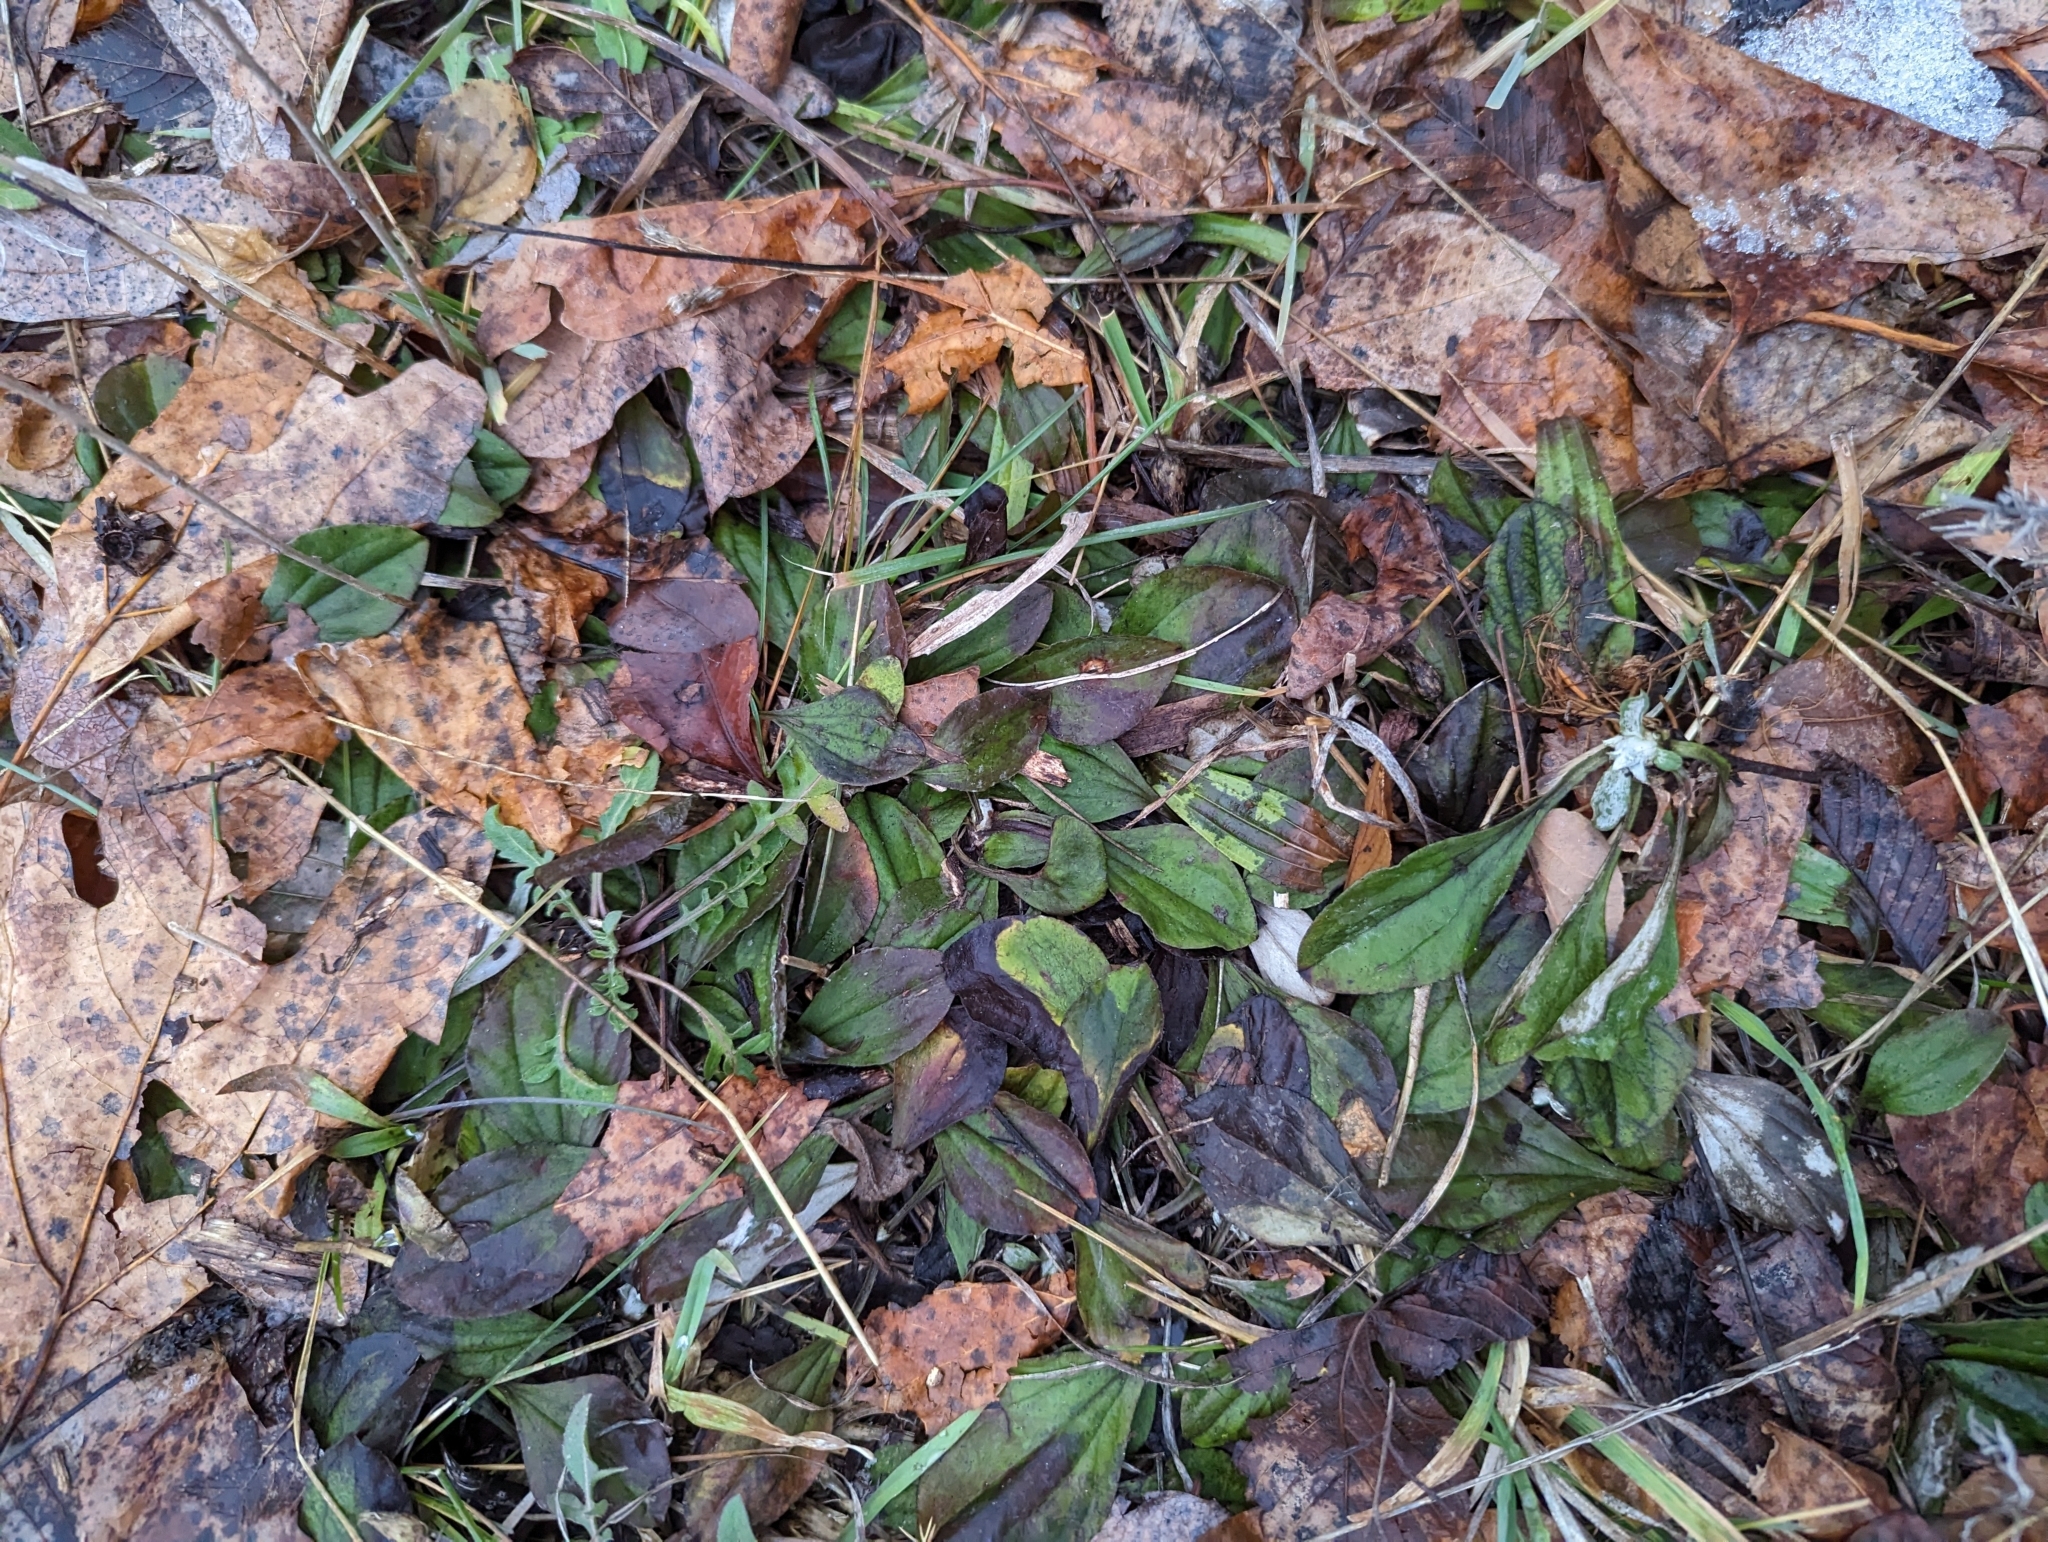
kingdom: Plantae
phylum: Tracheophyta
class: Magnoliopsida
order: Lamiales
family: Plantaginaceae
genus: Plantago
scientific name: Plantago major
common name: Common plantain
